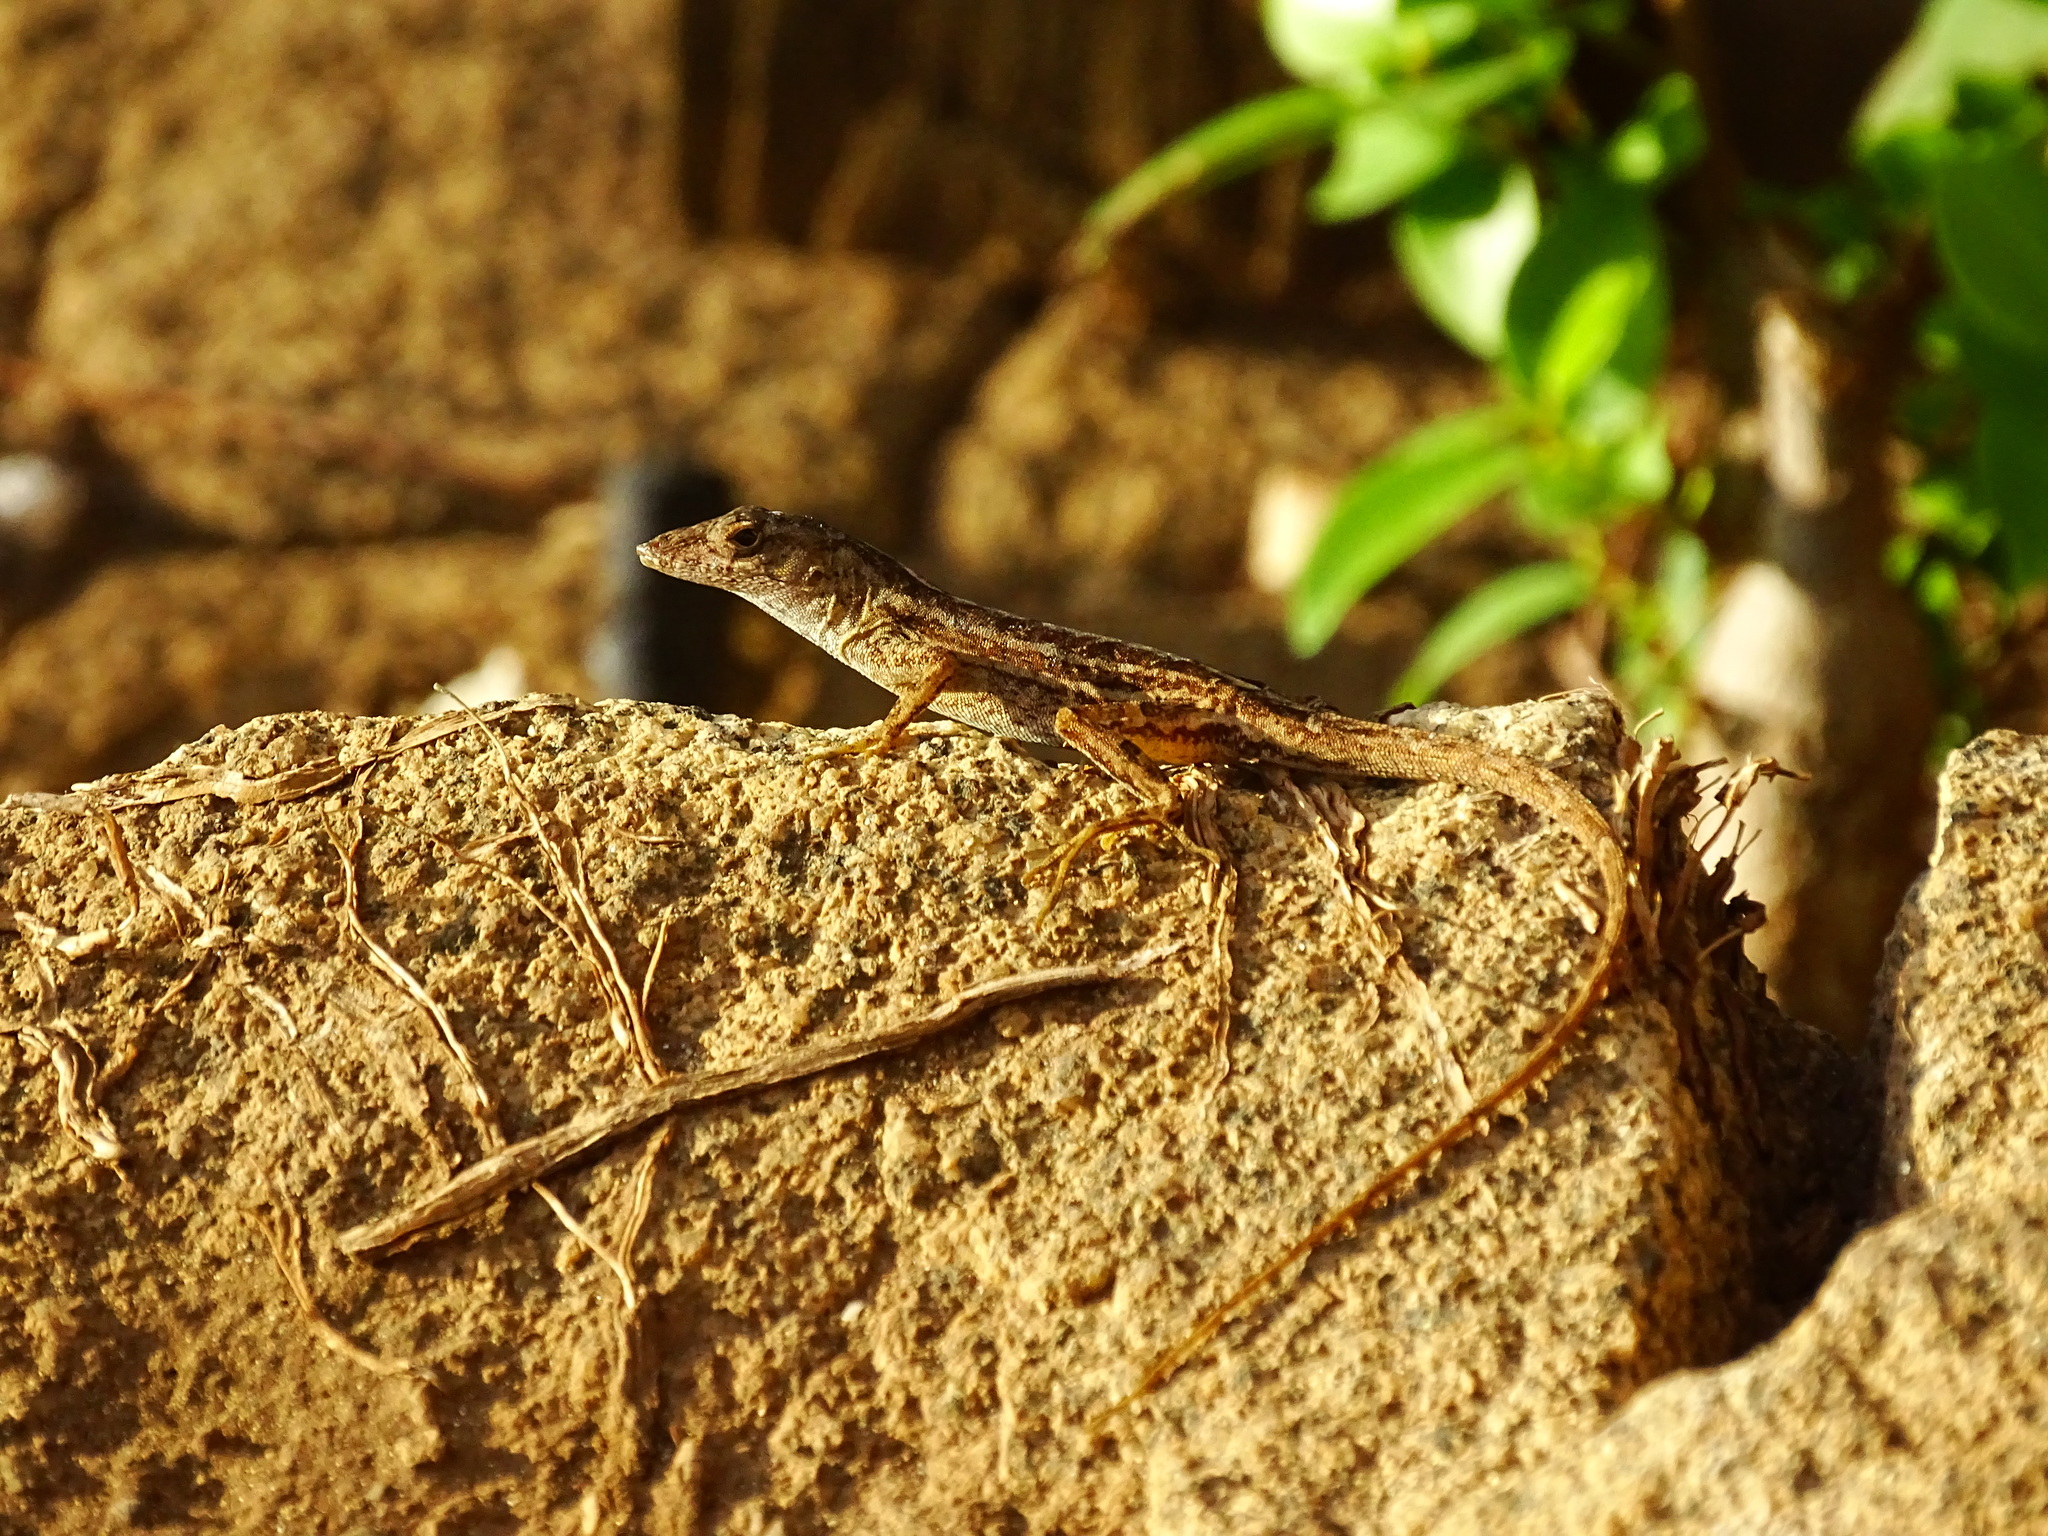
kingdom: Animalia
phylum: Chordata
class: Squamata
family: Dactyloidae
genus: Anolis
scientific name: Anolis sagrei
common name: Brown anole
